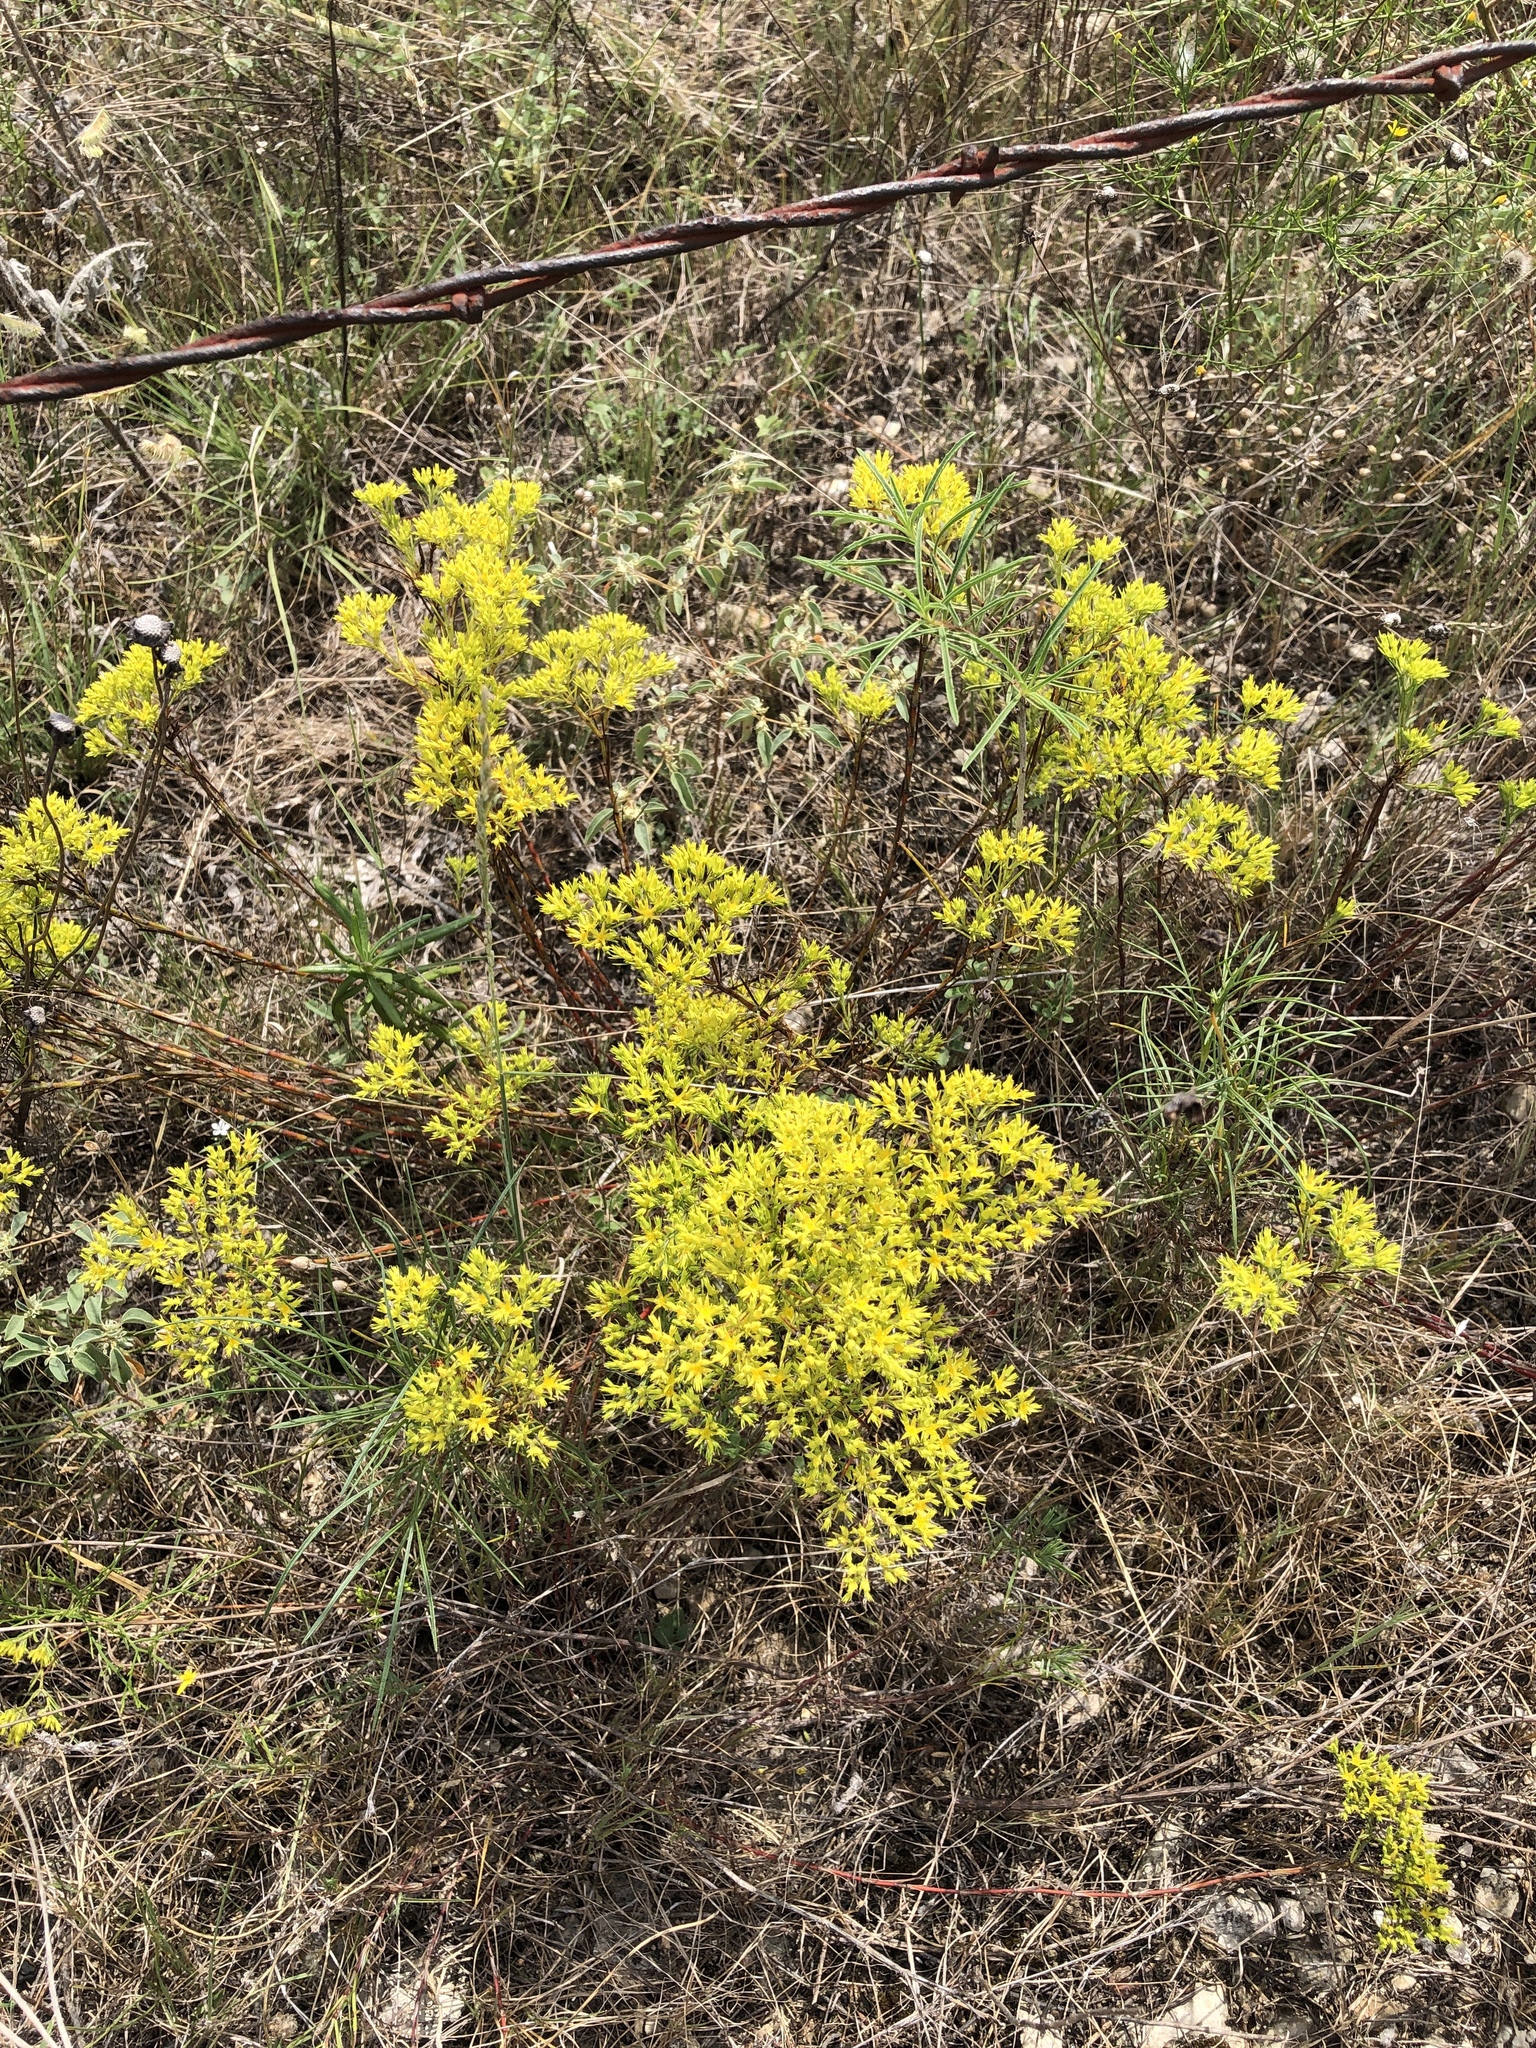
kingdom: Plantae
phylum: Tracheophyta
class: Magnoliopsida
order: Caryophyllales
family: Caryophyllaceae
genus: Paronychia
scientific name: Paronychia virginica
